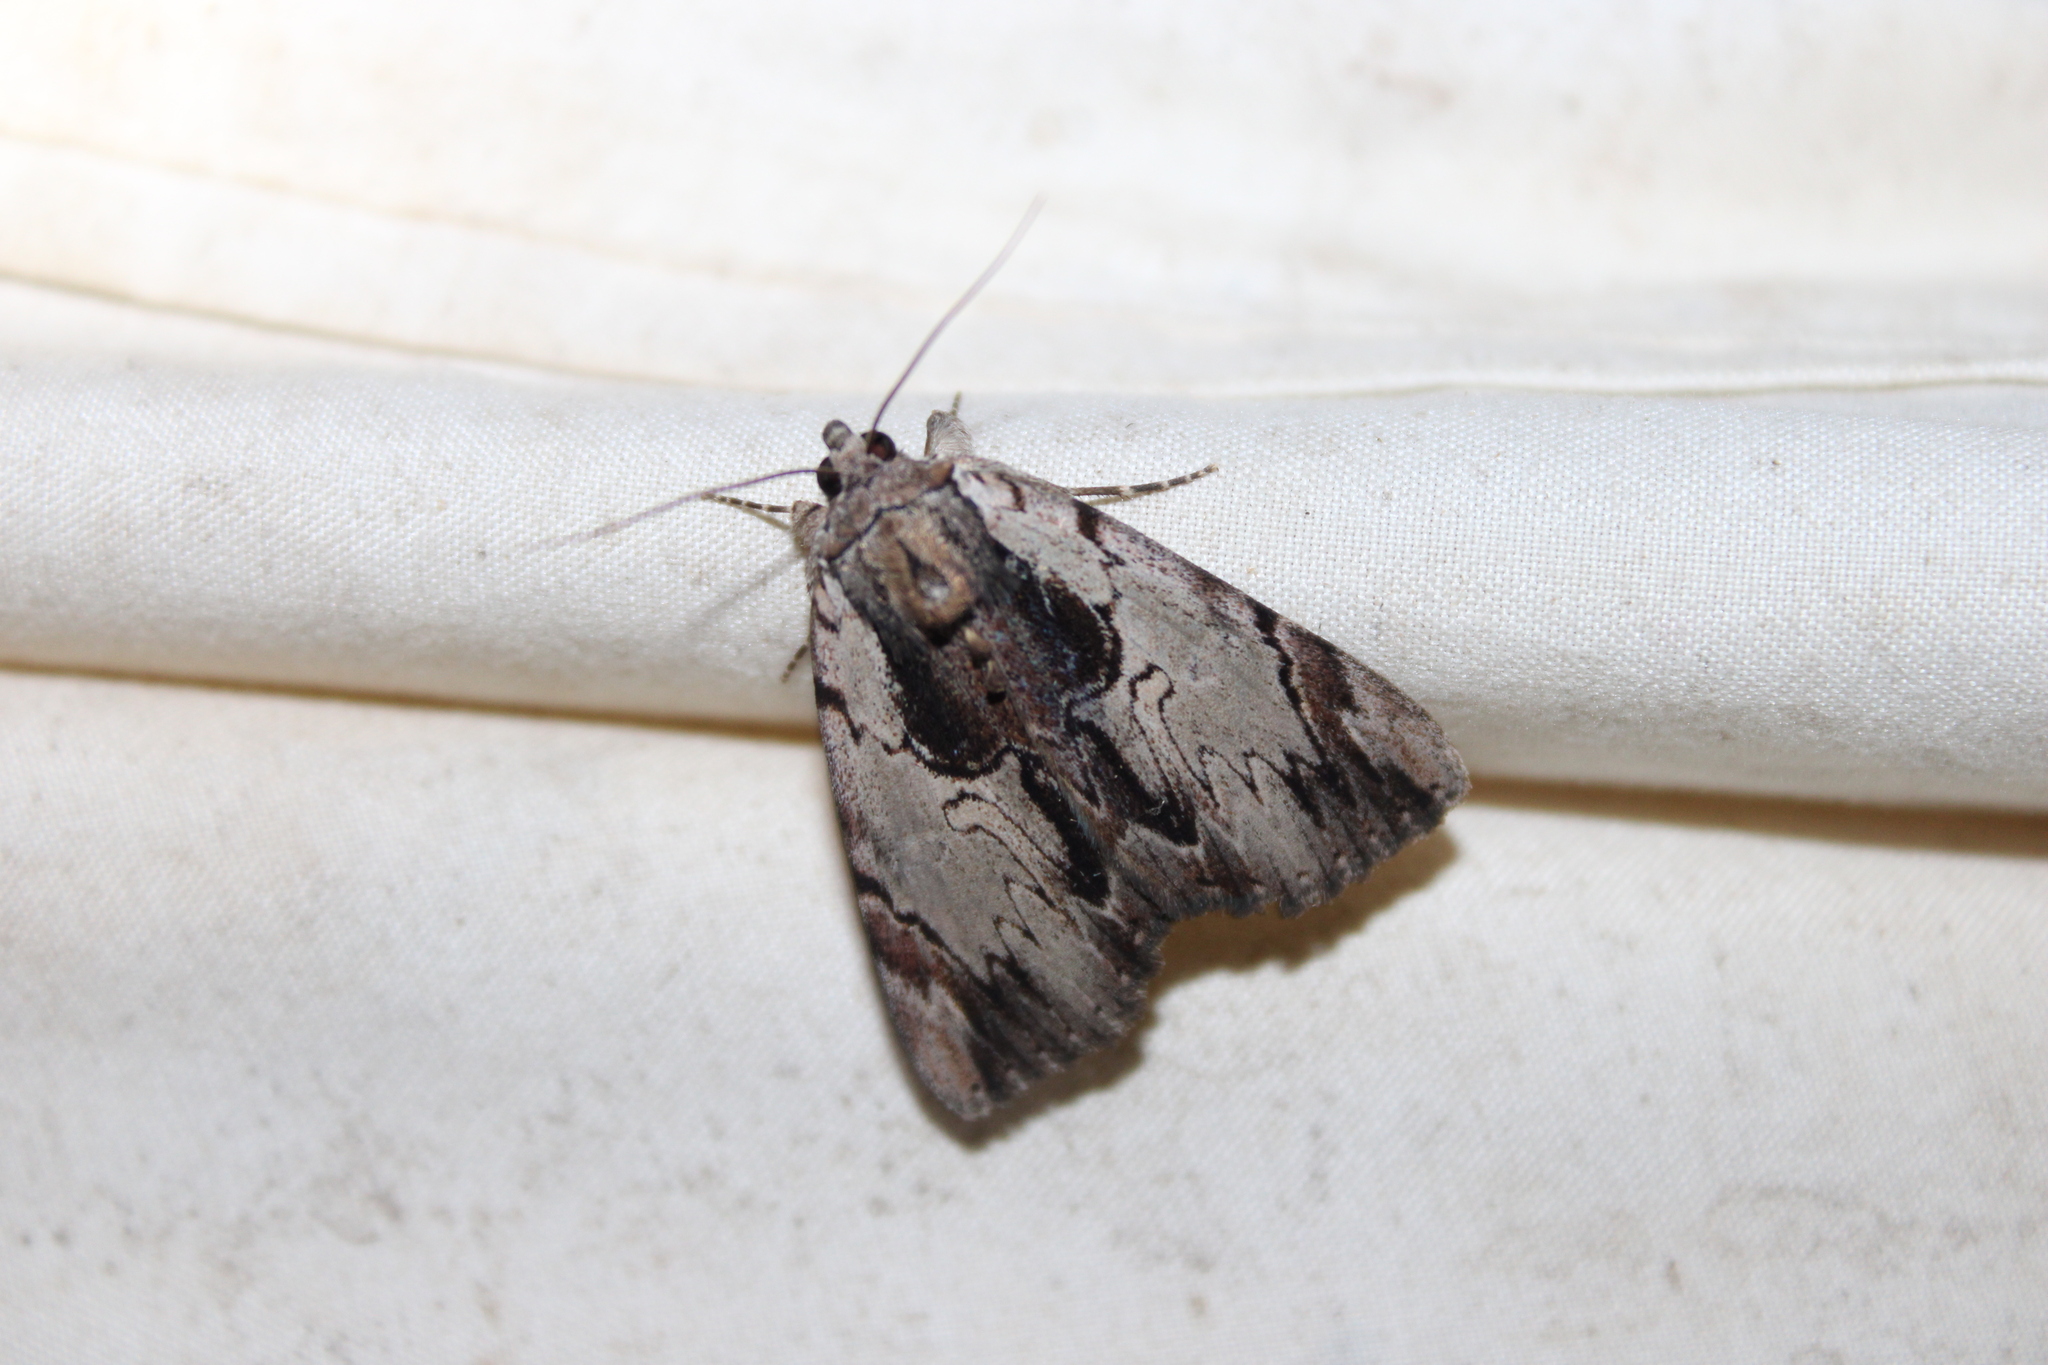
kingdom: Animalia
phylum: Arthropoda
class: Insecta
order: Lepidoptera
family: Erebidae
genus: Catocala
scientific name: Catocala ultronia
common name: Ultronia underwing
